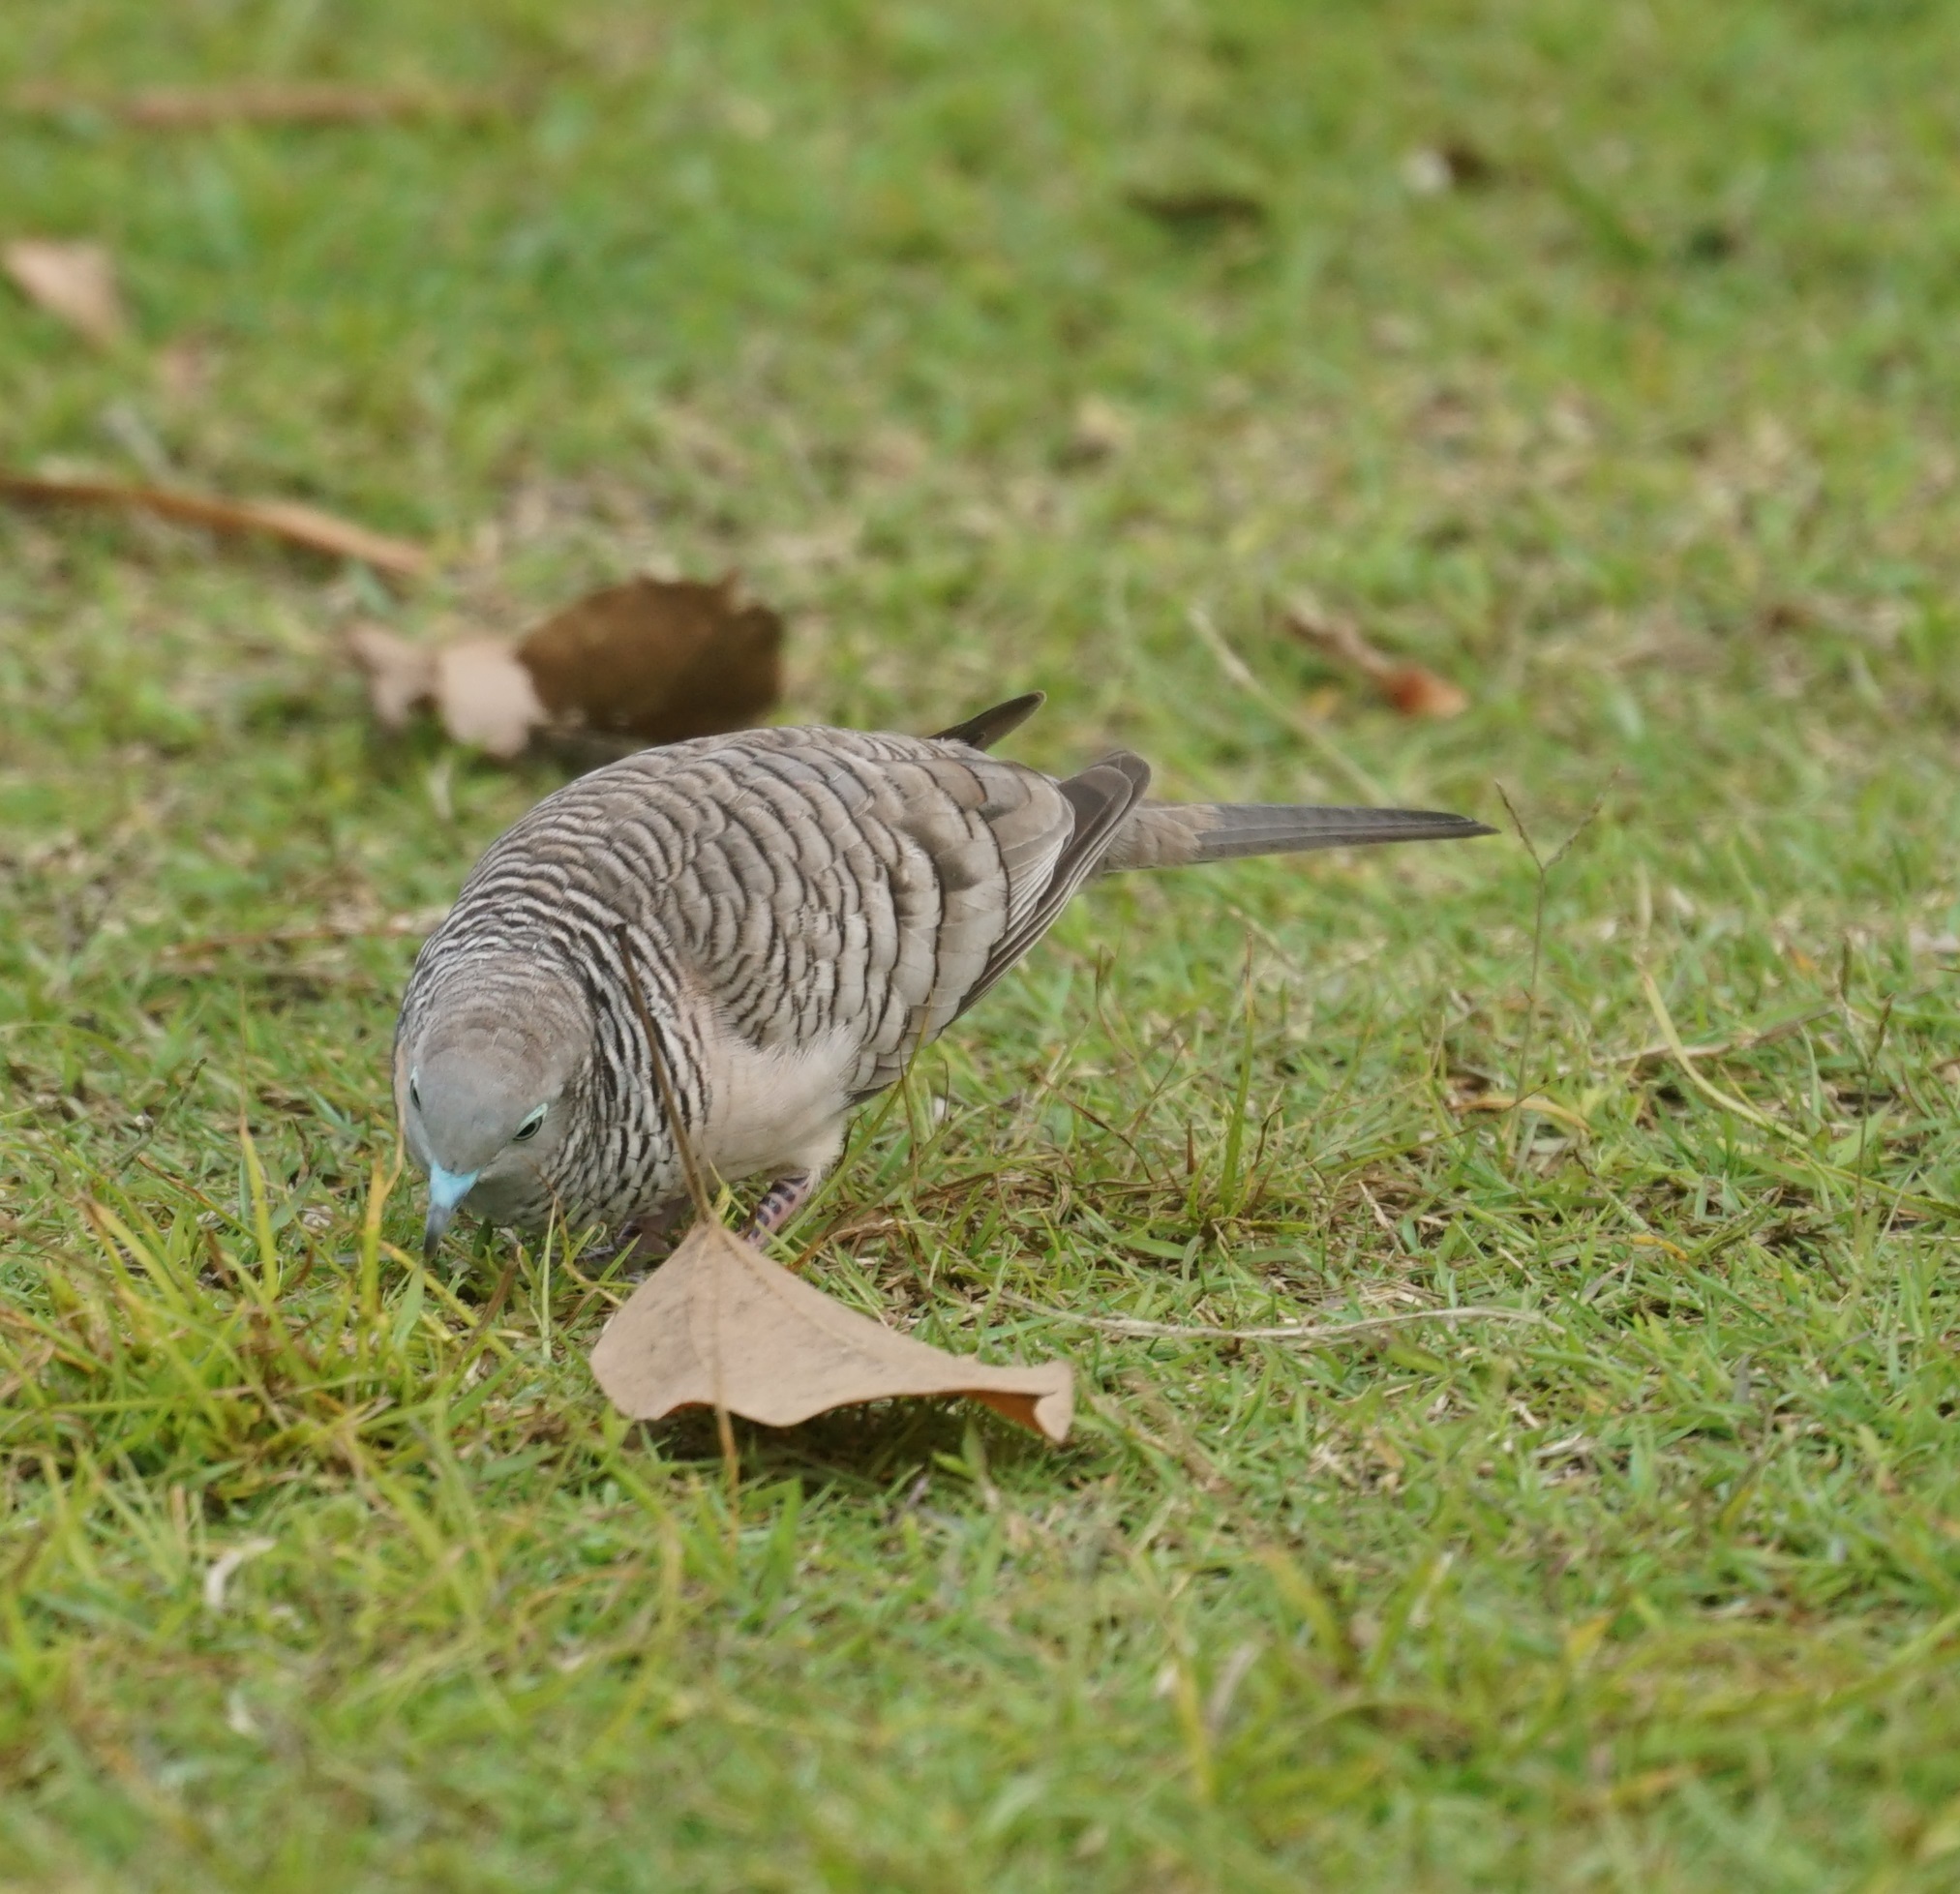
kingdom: Animalia
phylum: Chordata
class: Aves
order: Columbiformes
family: Columbidae
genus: Geopelia
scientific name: Geopelia placida
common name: Peaceful dove
